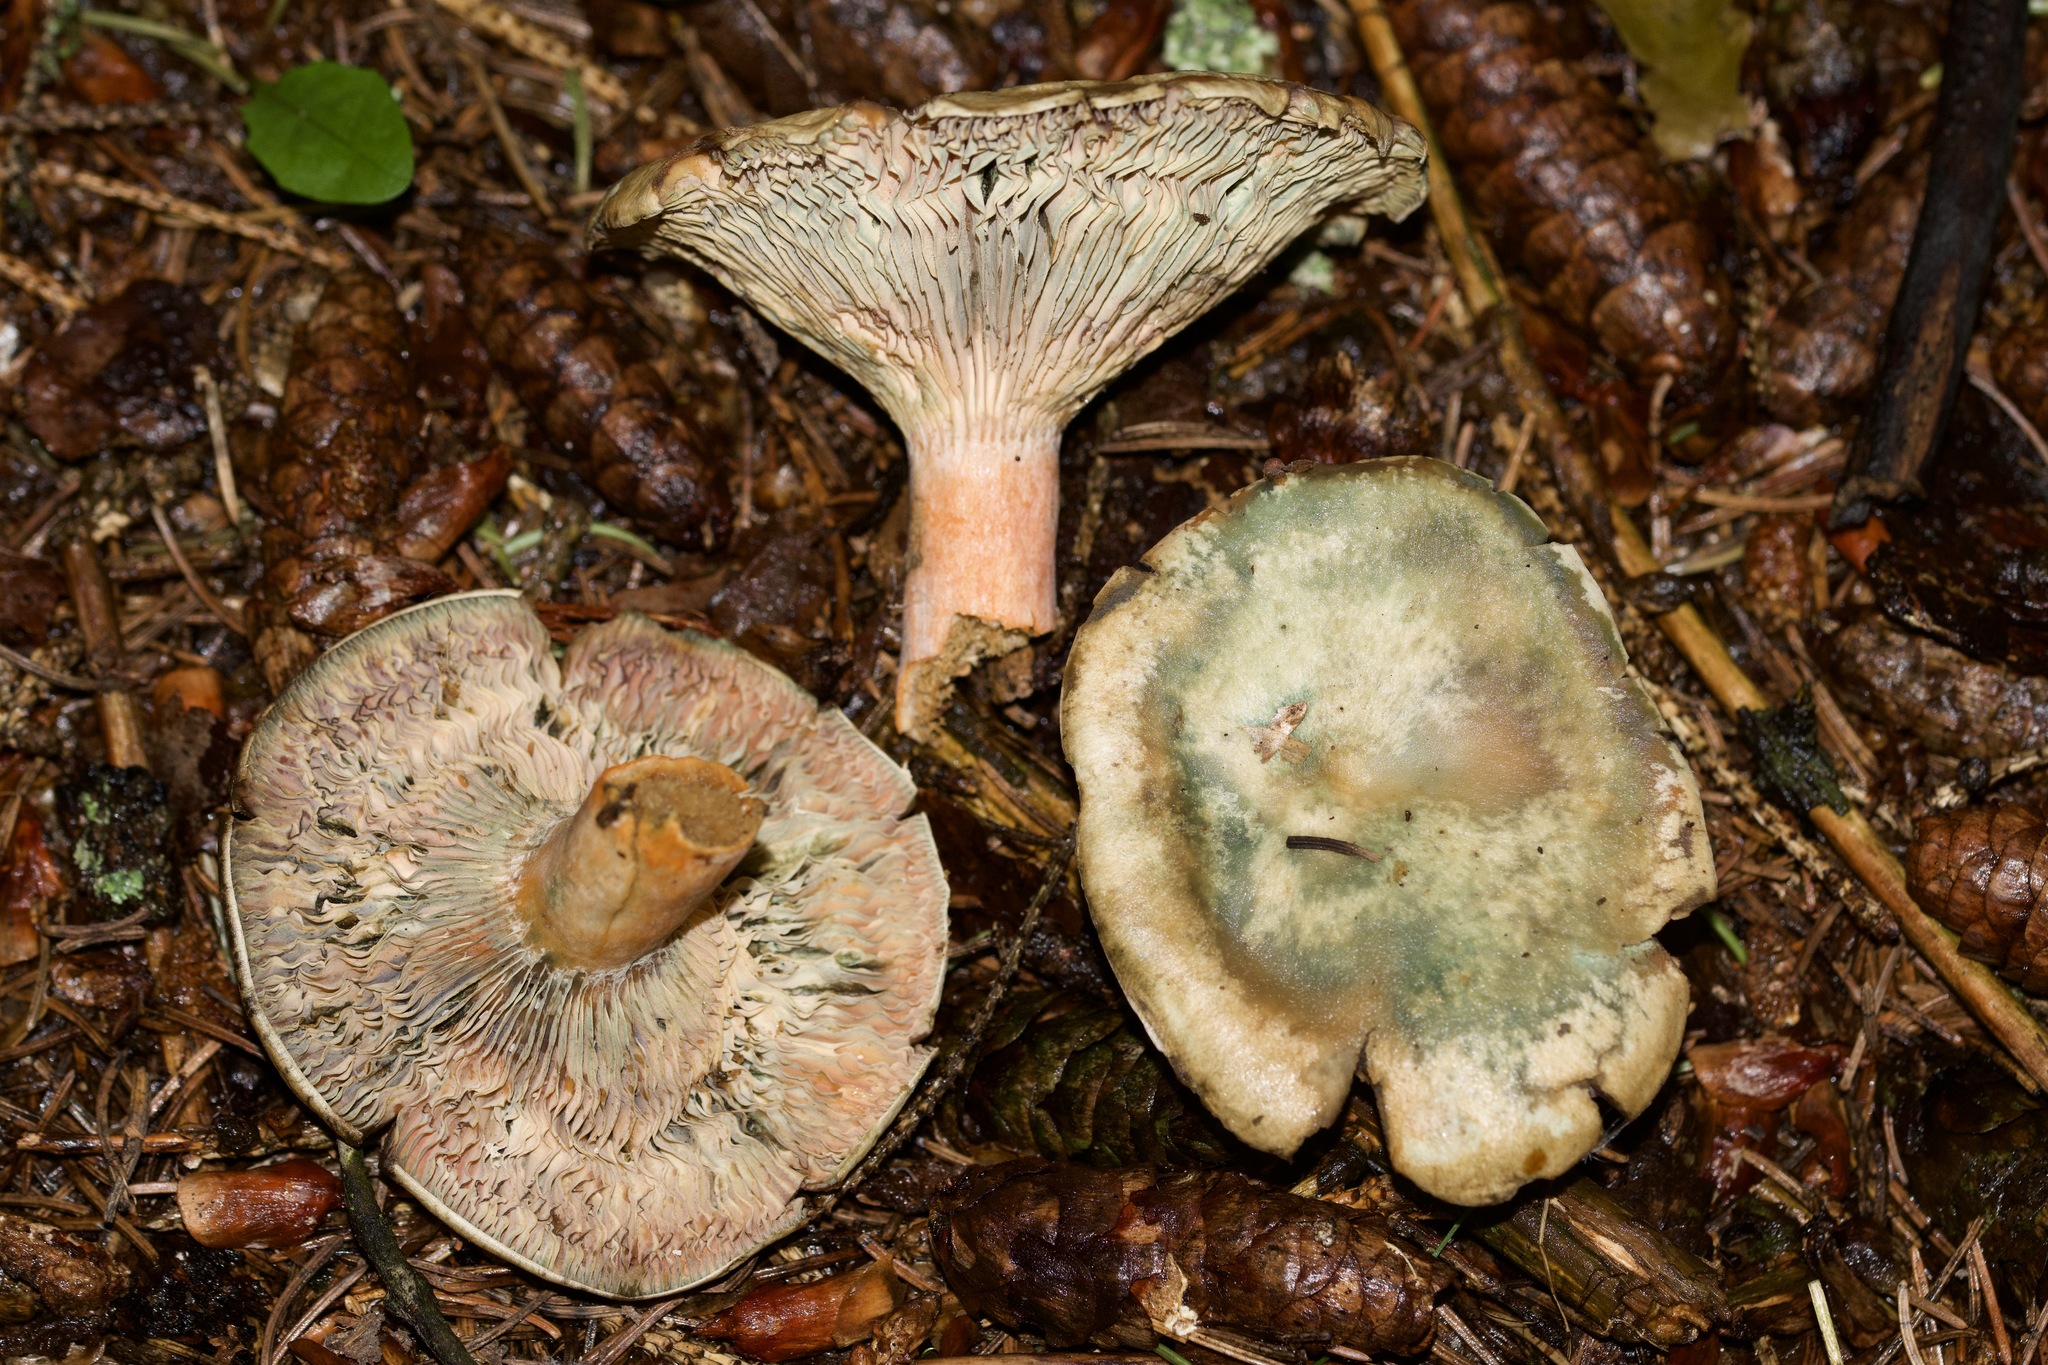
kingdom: Fungi
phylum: Basidiomycota
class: Agaricomycetes
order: Russulales
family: Russulaceae
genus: Lactarius
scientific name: Lactarius deterrimus
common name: False saffron milkcap
